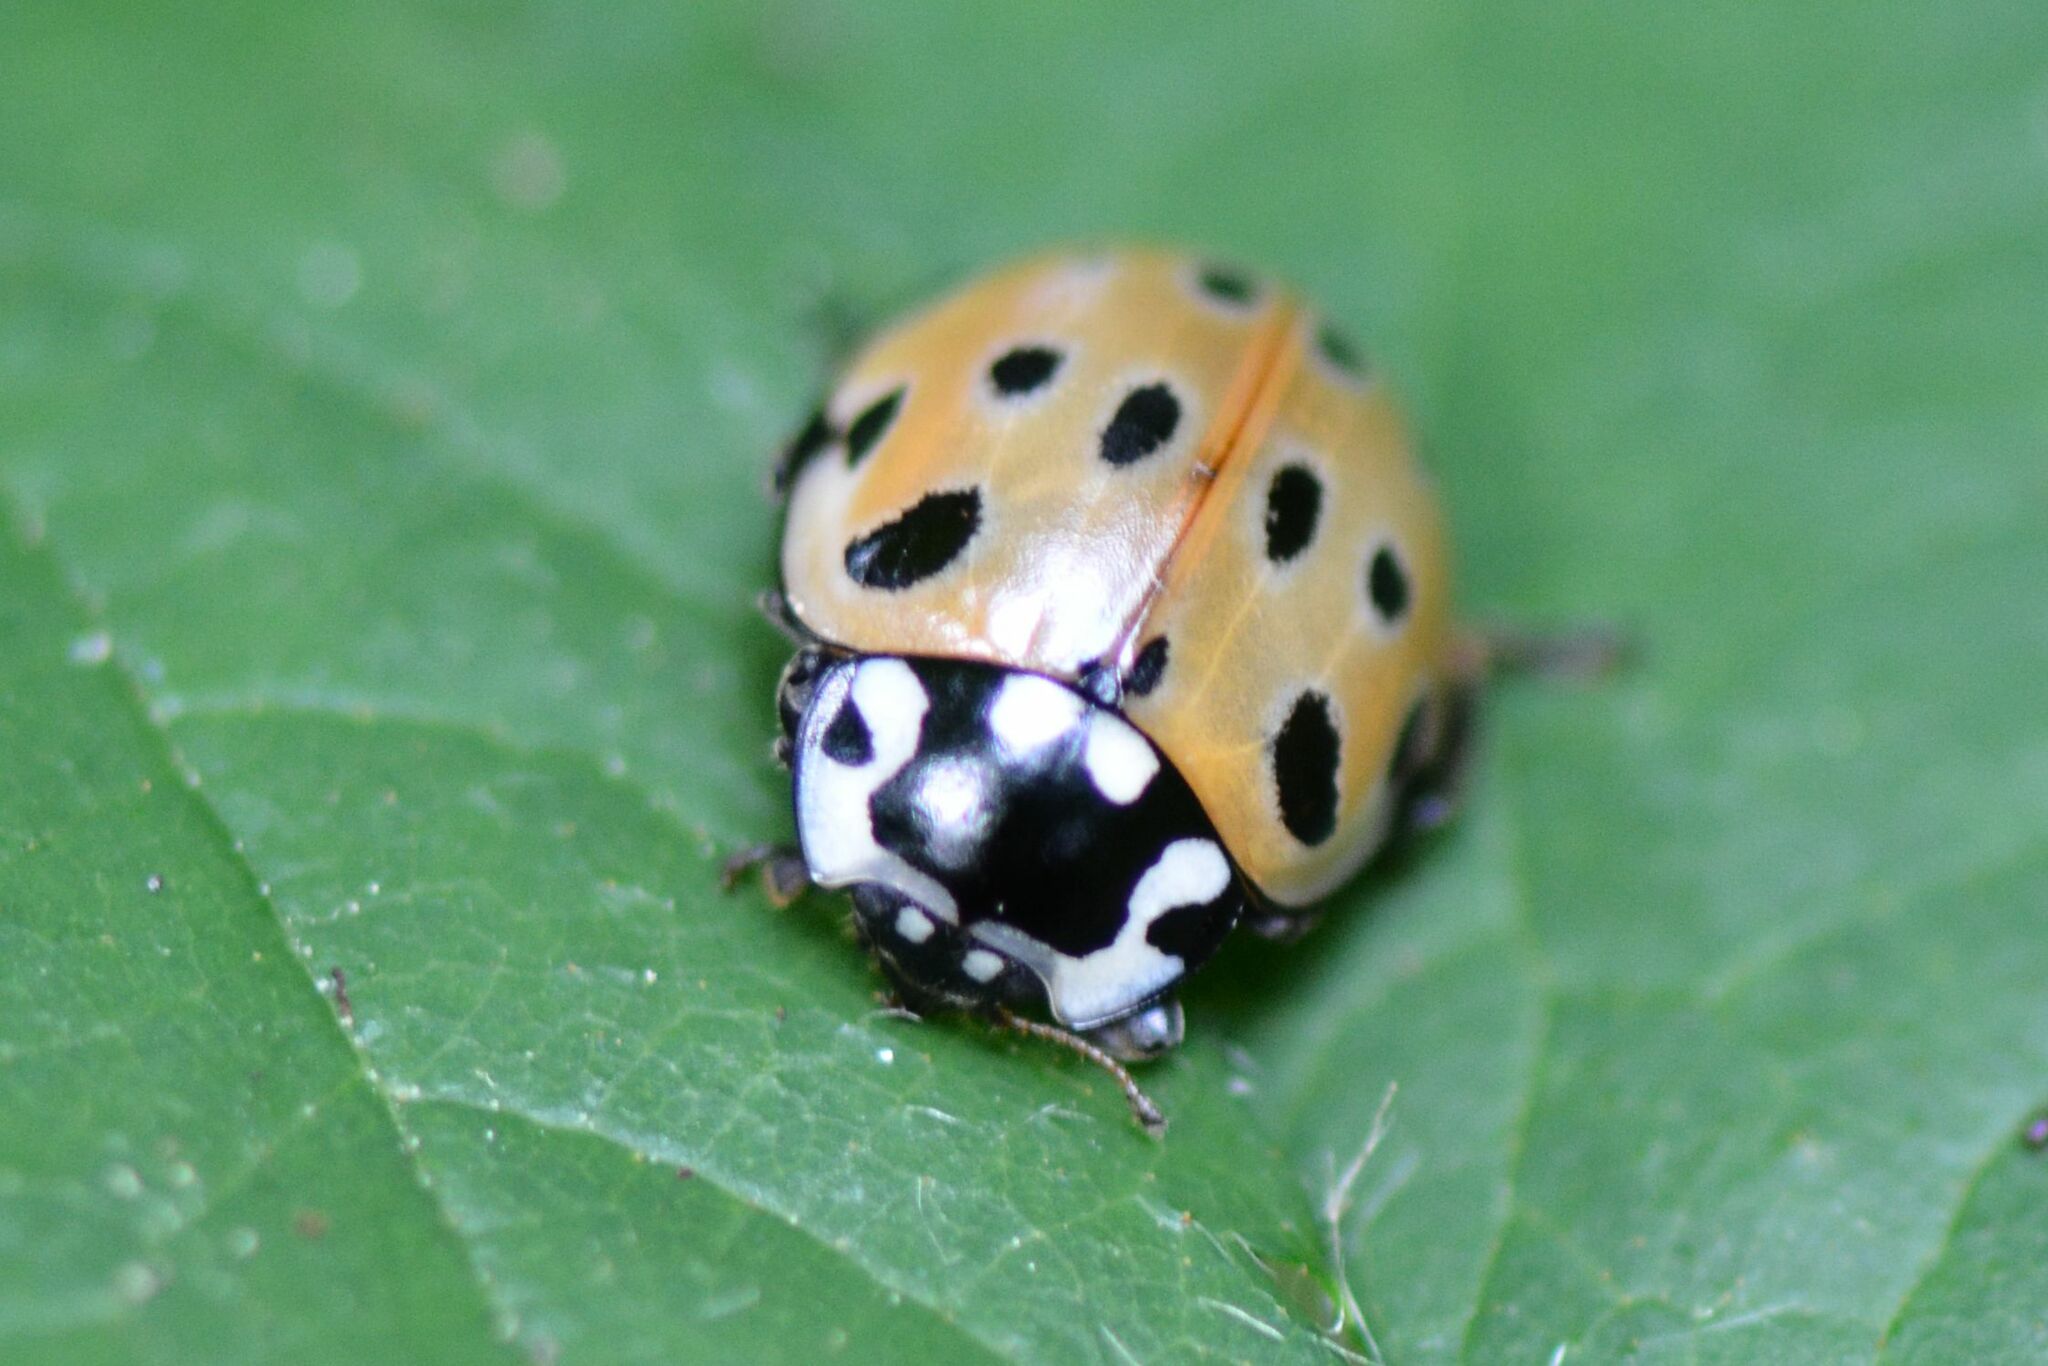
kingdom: Animalia
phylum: Arthropoda
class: Insecta
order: Coleoptera
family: Coccinellidae
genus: Anatis
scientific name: Anatis ocellata
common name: Eyed ladybird
